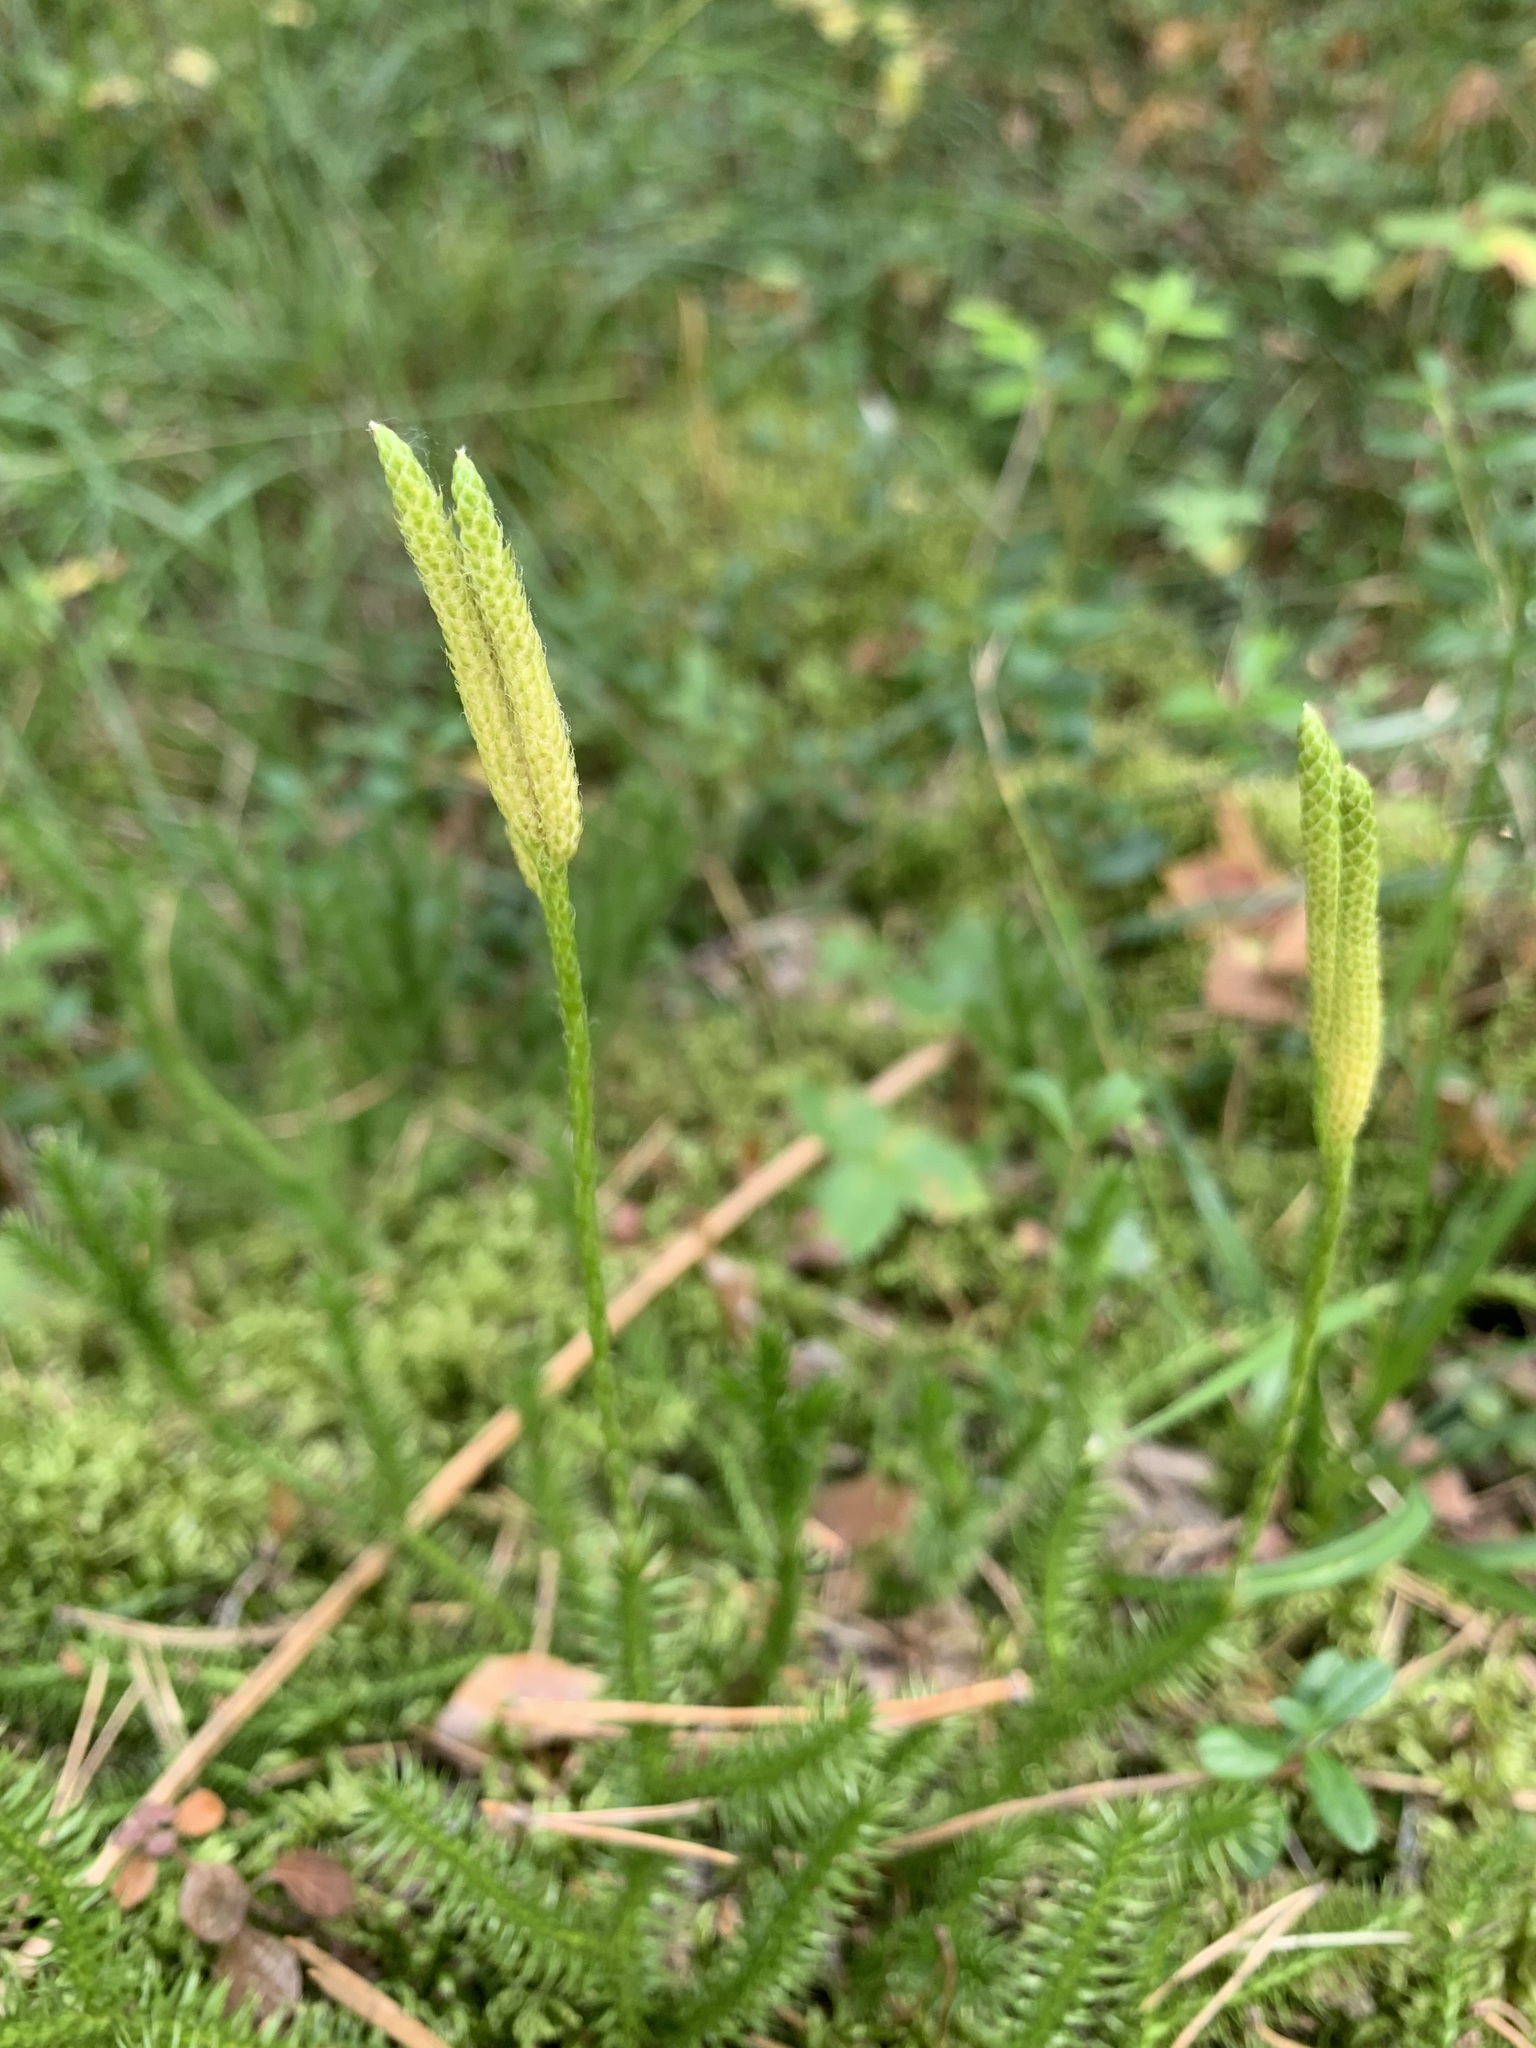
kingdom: Plantae
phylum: Tracheophyta
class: Lycopodiopsida
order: Lycopodiales
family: Lycopodiaceae
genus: Lycopodium
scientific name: Lycopodium clavatum
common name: Stag's-horn clubmoss
